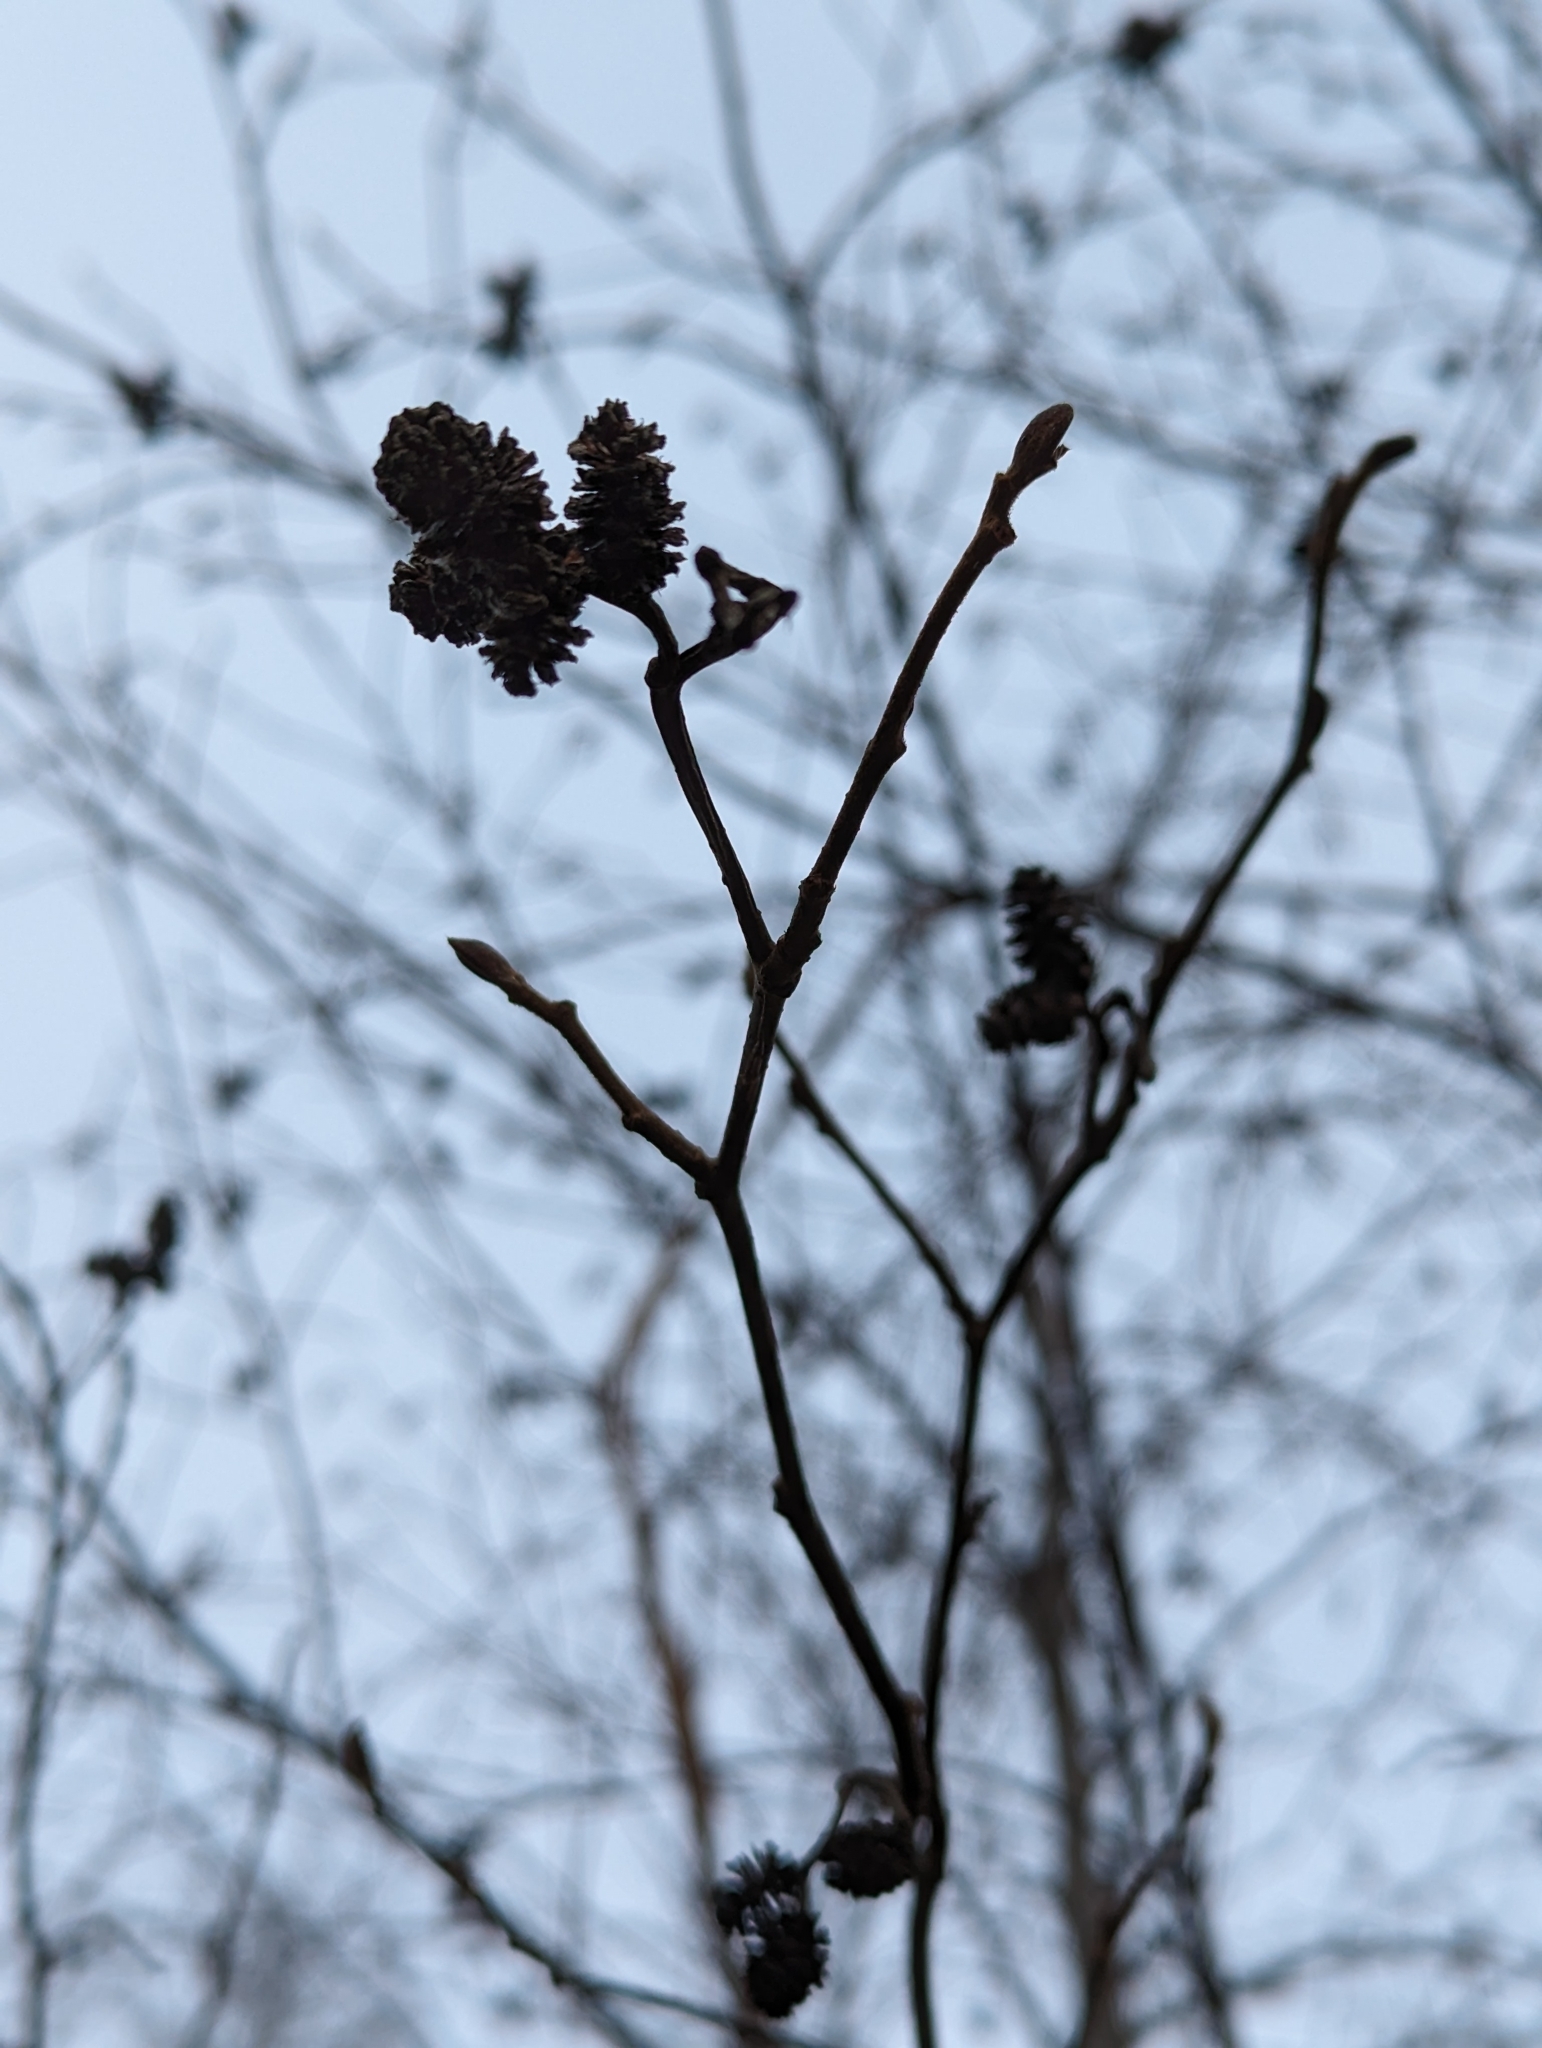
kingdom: Plantae
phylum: Tracheophyta
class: Magnoliopsida
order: Fagales
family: Betulaceae
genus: Alnus
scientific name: Alnus glutinosa
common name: Black alder
